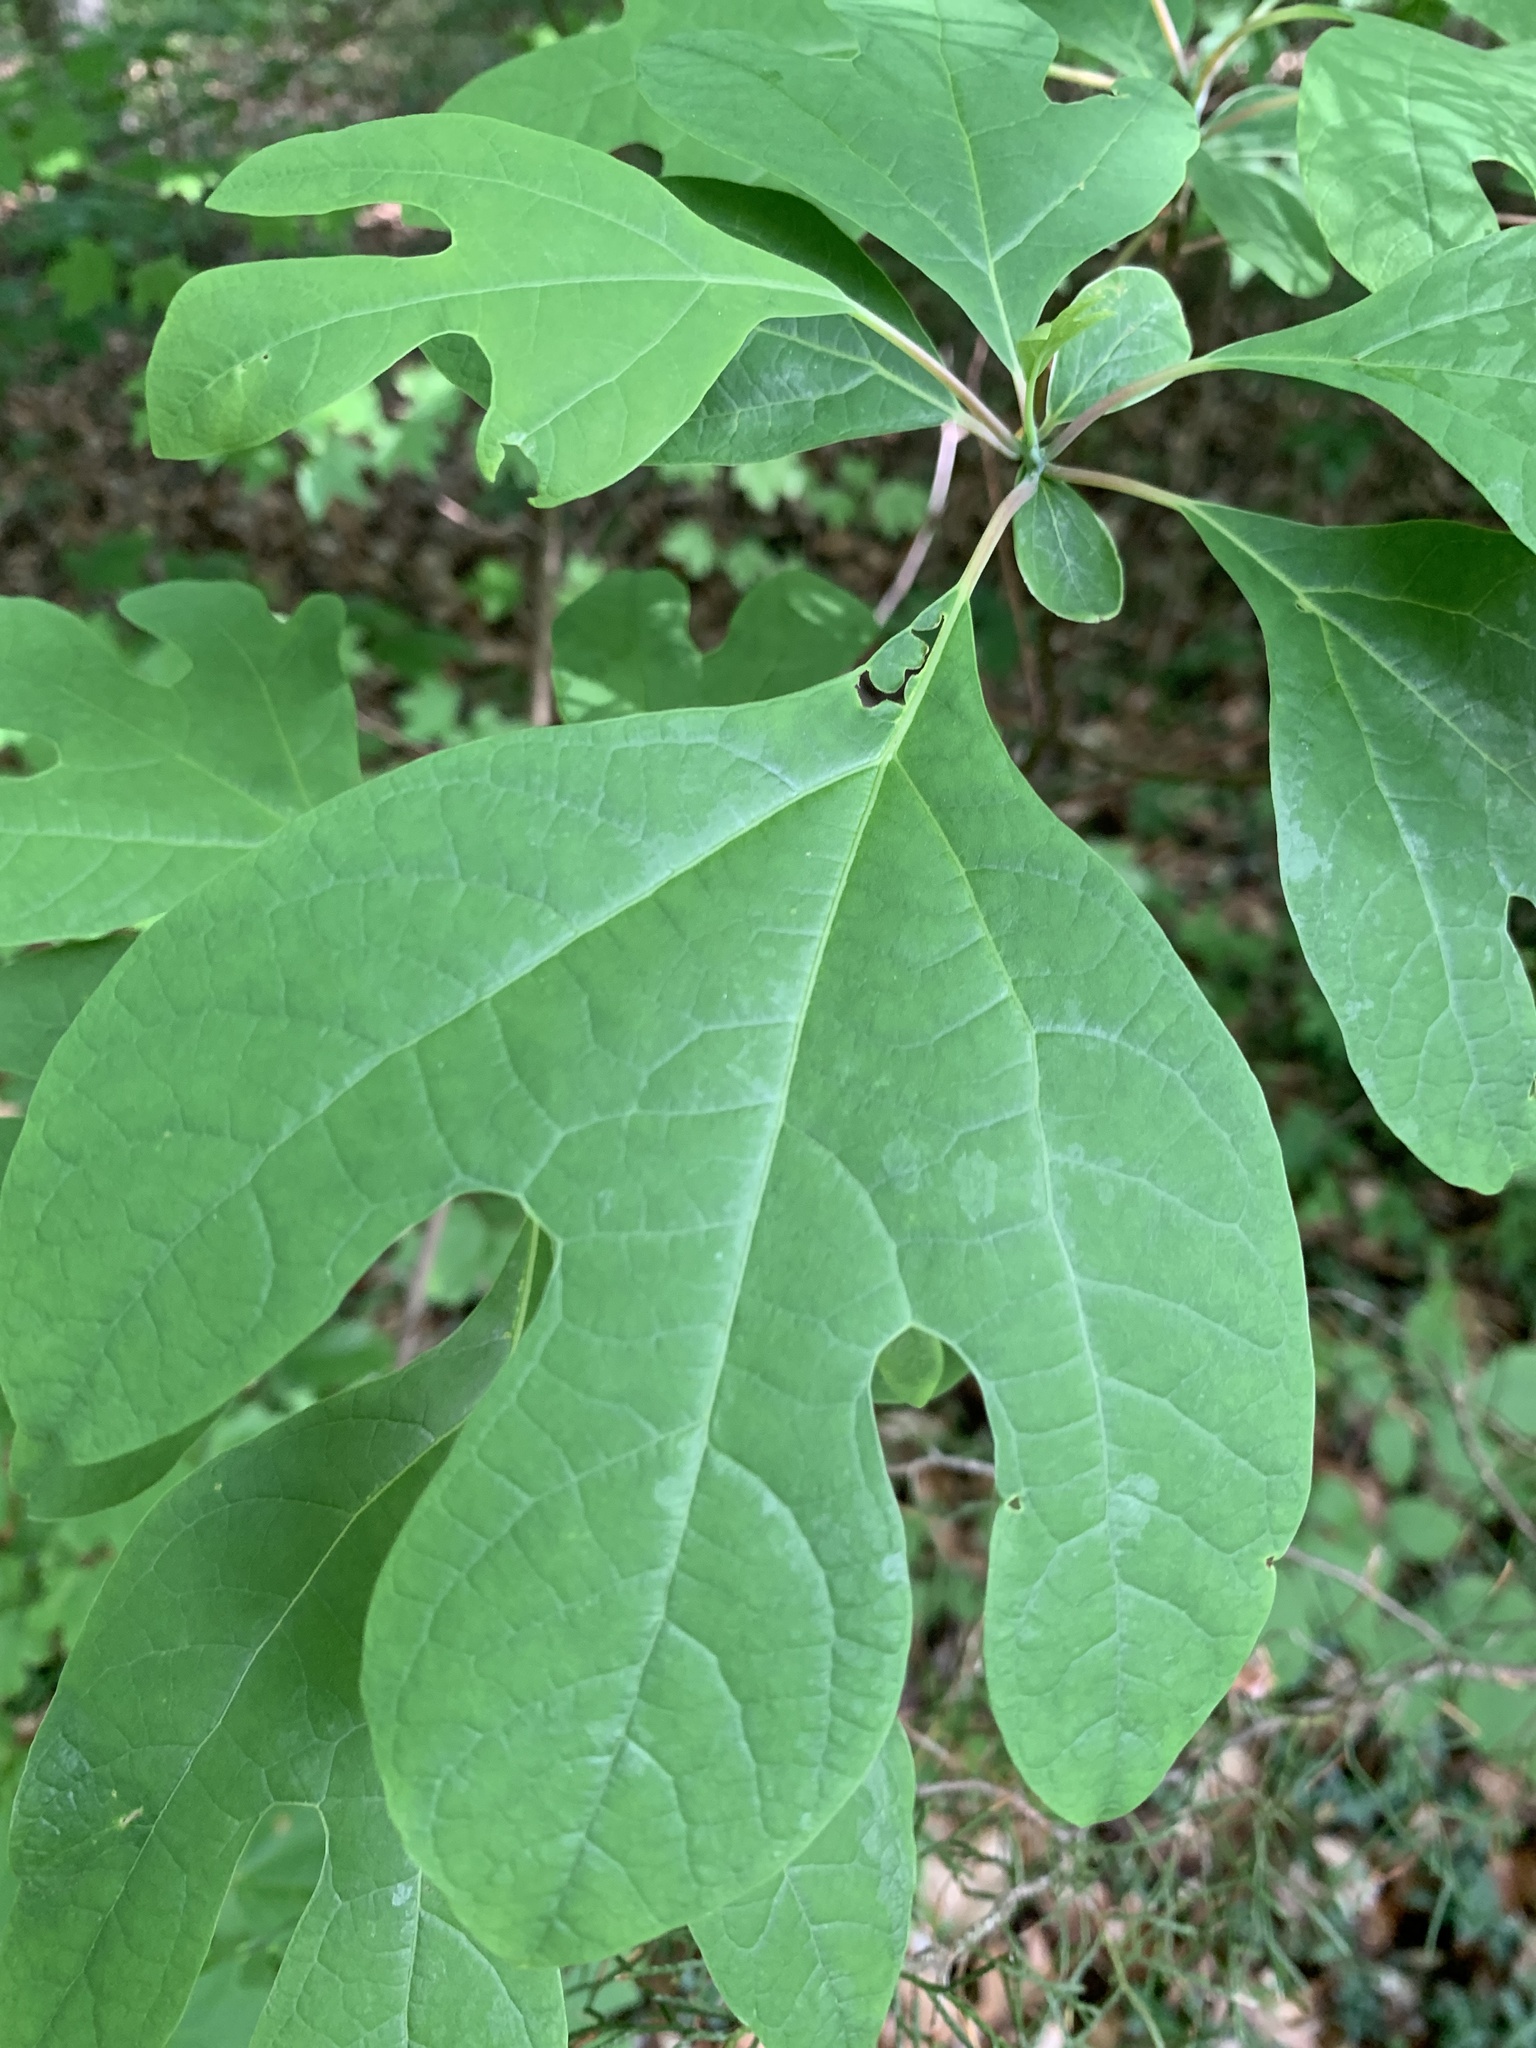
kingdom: Plantae
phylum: Tracheophyta
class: Magnoliopsida
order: Laurales
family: Lauraceae
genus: Sassafras
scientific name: Sassafras albidum
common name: Sassafras
